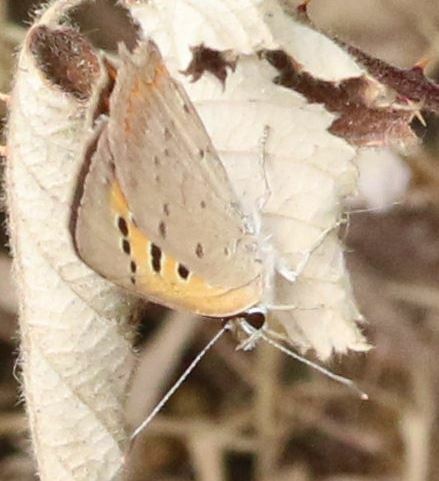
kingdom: Animalia
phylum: Arthropoda
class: Insecta
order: Lepidoptera
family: Lycaenidae
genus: Lycaena
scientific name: Lycaena phlaeas
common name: Small copper
